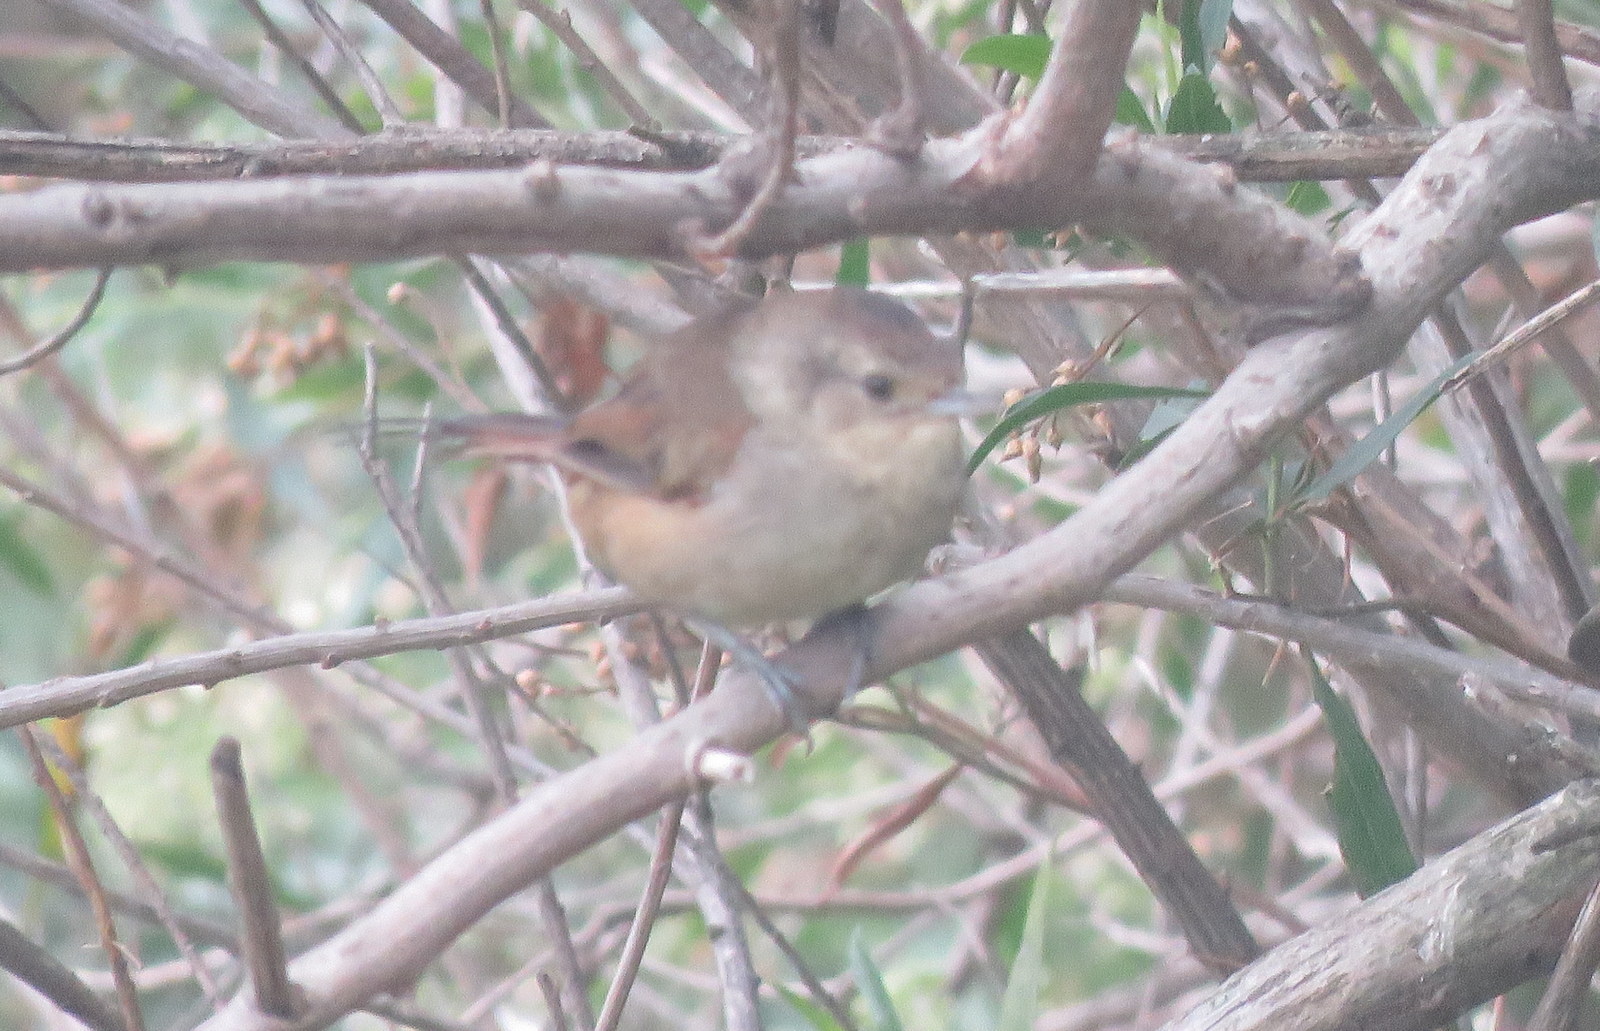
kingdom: Animalia
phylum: Chordata
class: Aves
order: Passeriformes
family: Furnariidae
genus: Phacellodomus
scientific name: Phacellodomus sibilatrix
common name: Little thornbird
